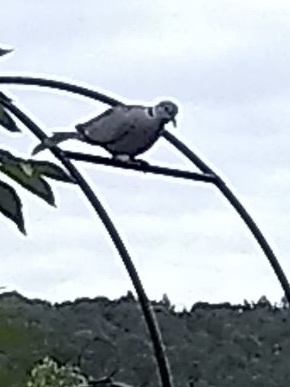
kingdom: Animalia
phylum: Chordata
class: Aves
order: Columbiformes
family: Columbidae
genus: Streptopelia
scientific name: Streptopelia decaocto
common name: Eurasian collared dove
